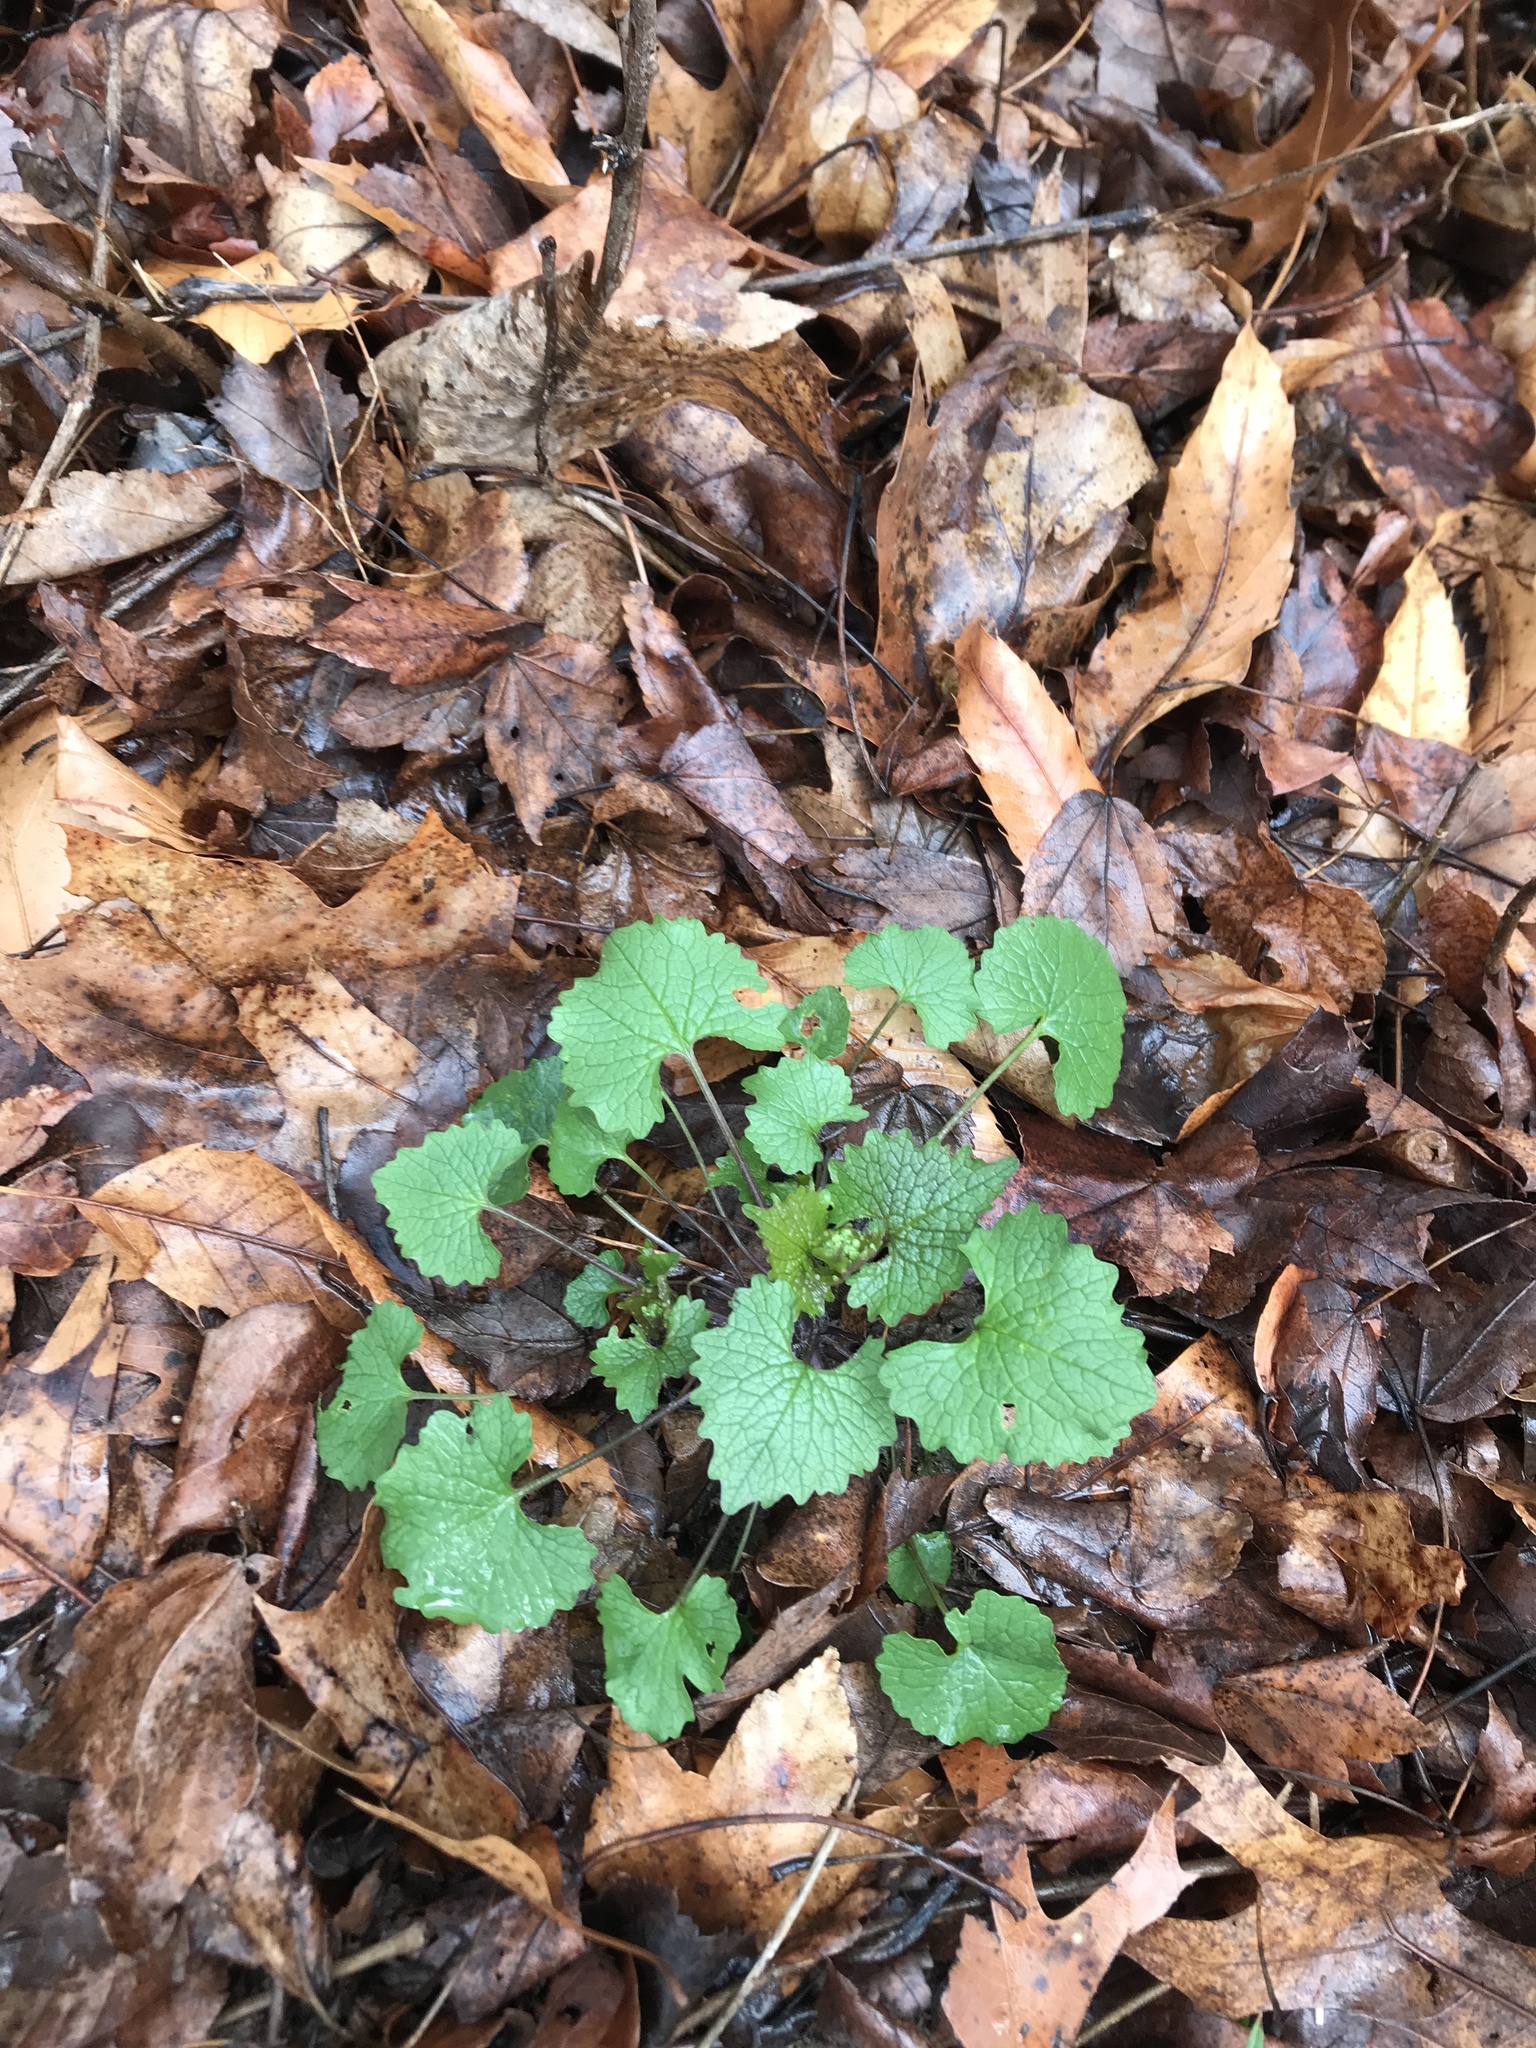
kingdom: Plantae
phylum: Tracheophyta
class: Magnoliopsida
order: Brassicales
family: Brassicaceae
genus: Alliaria
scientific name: Alliaria petiolata
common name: Garlic mustard
